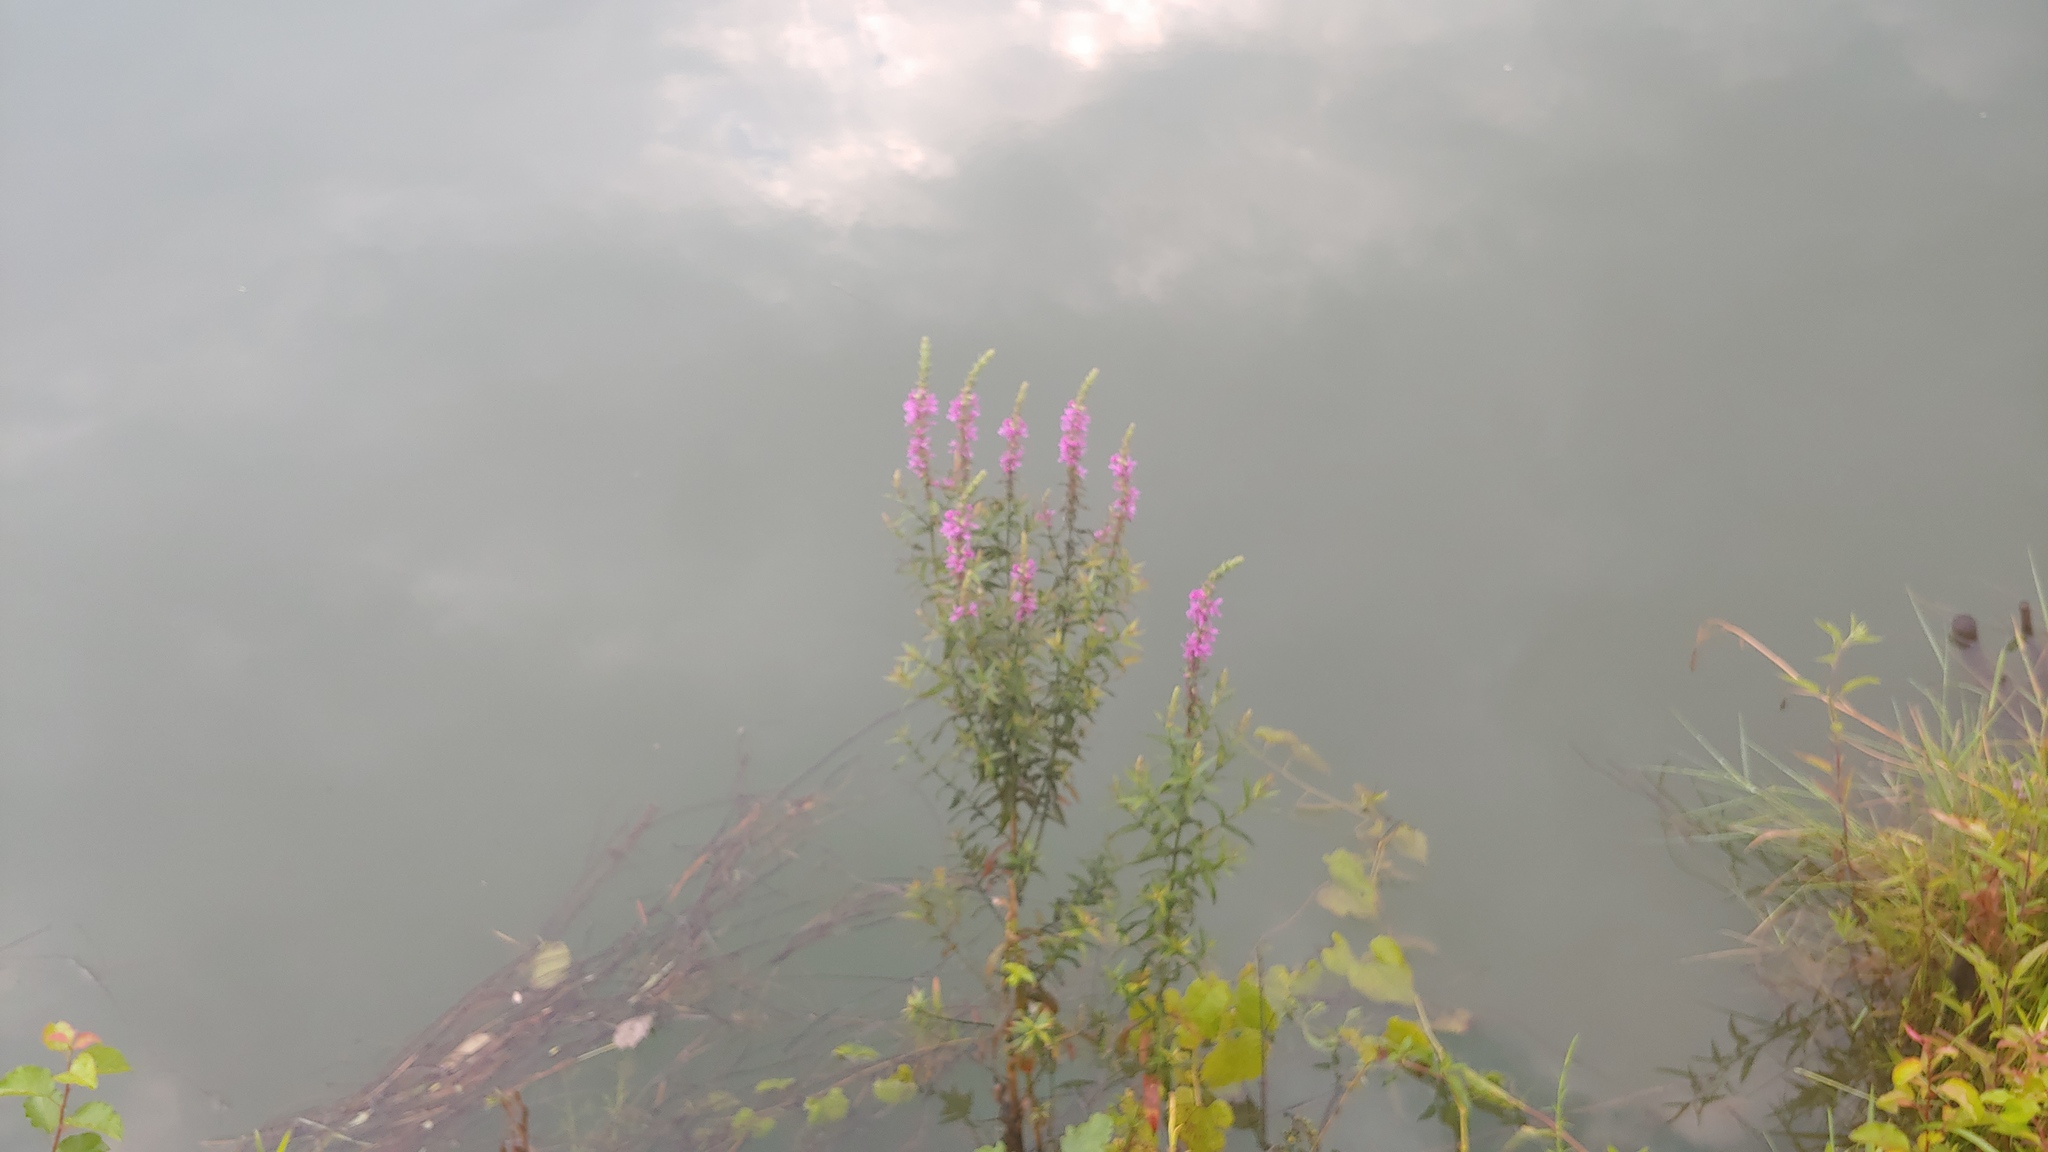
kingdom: Plantae
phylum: Tracheophyta
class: Magnoliopsida
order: Myrtales
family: Lythraceae
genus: Lythrum
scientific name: Lythrum salicaria
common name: Purple loosestrife
